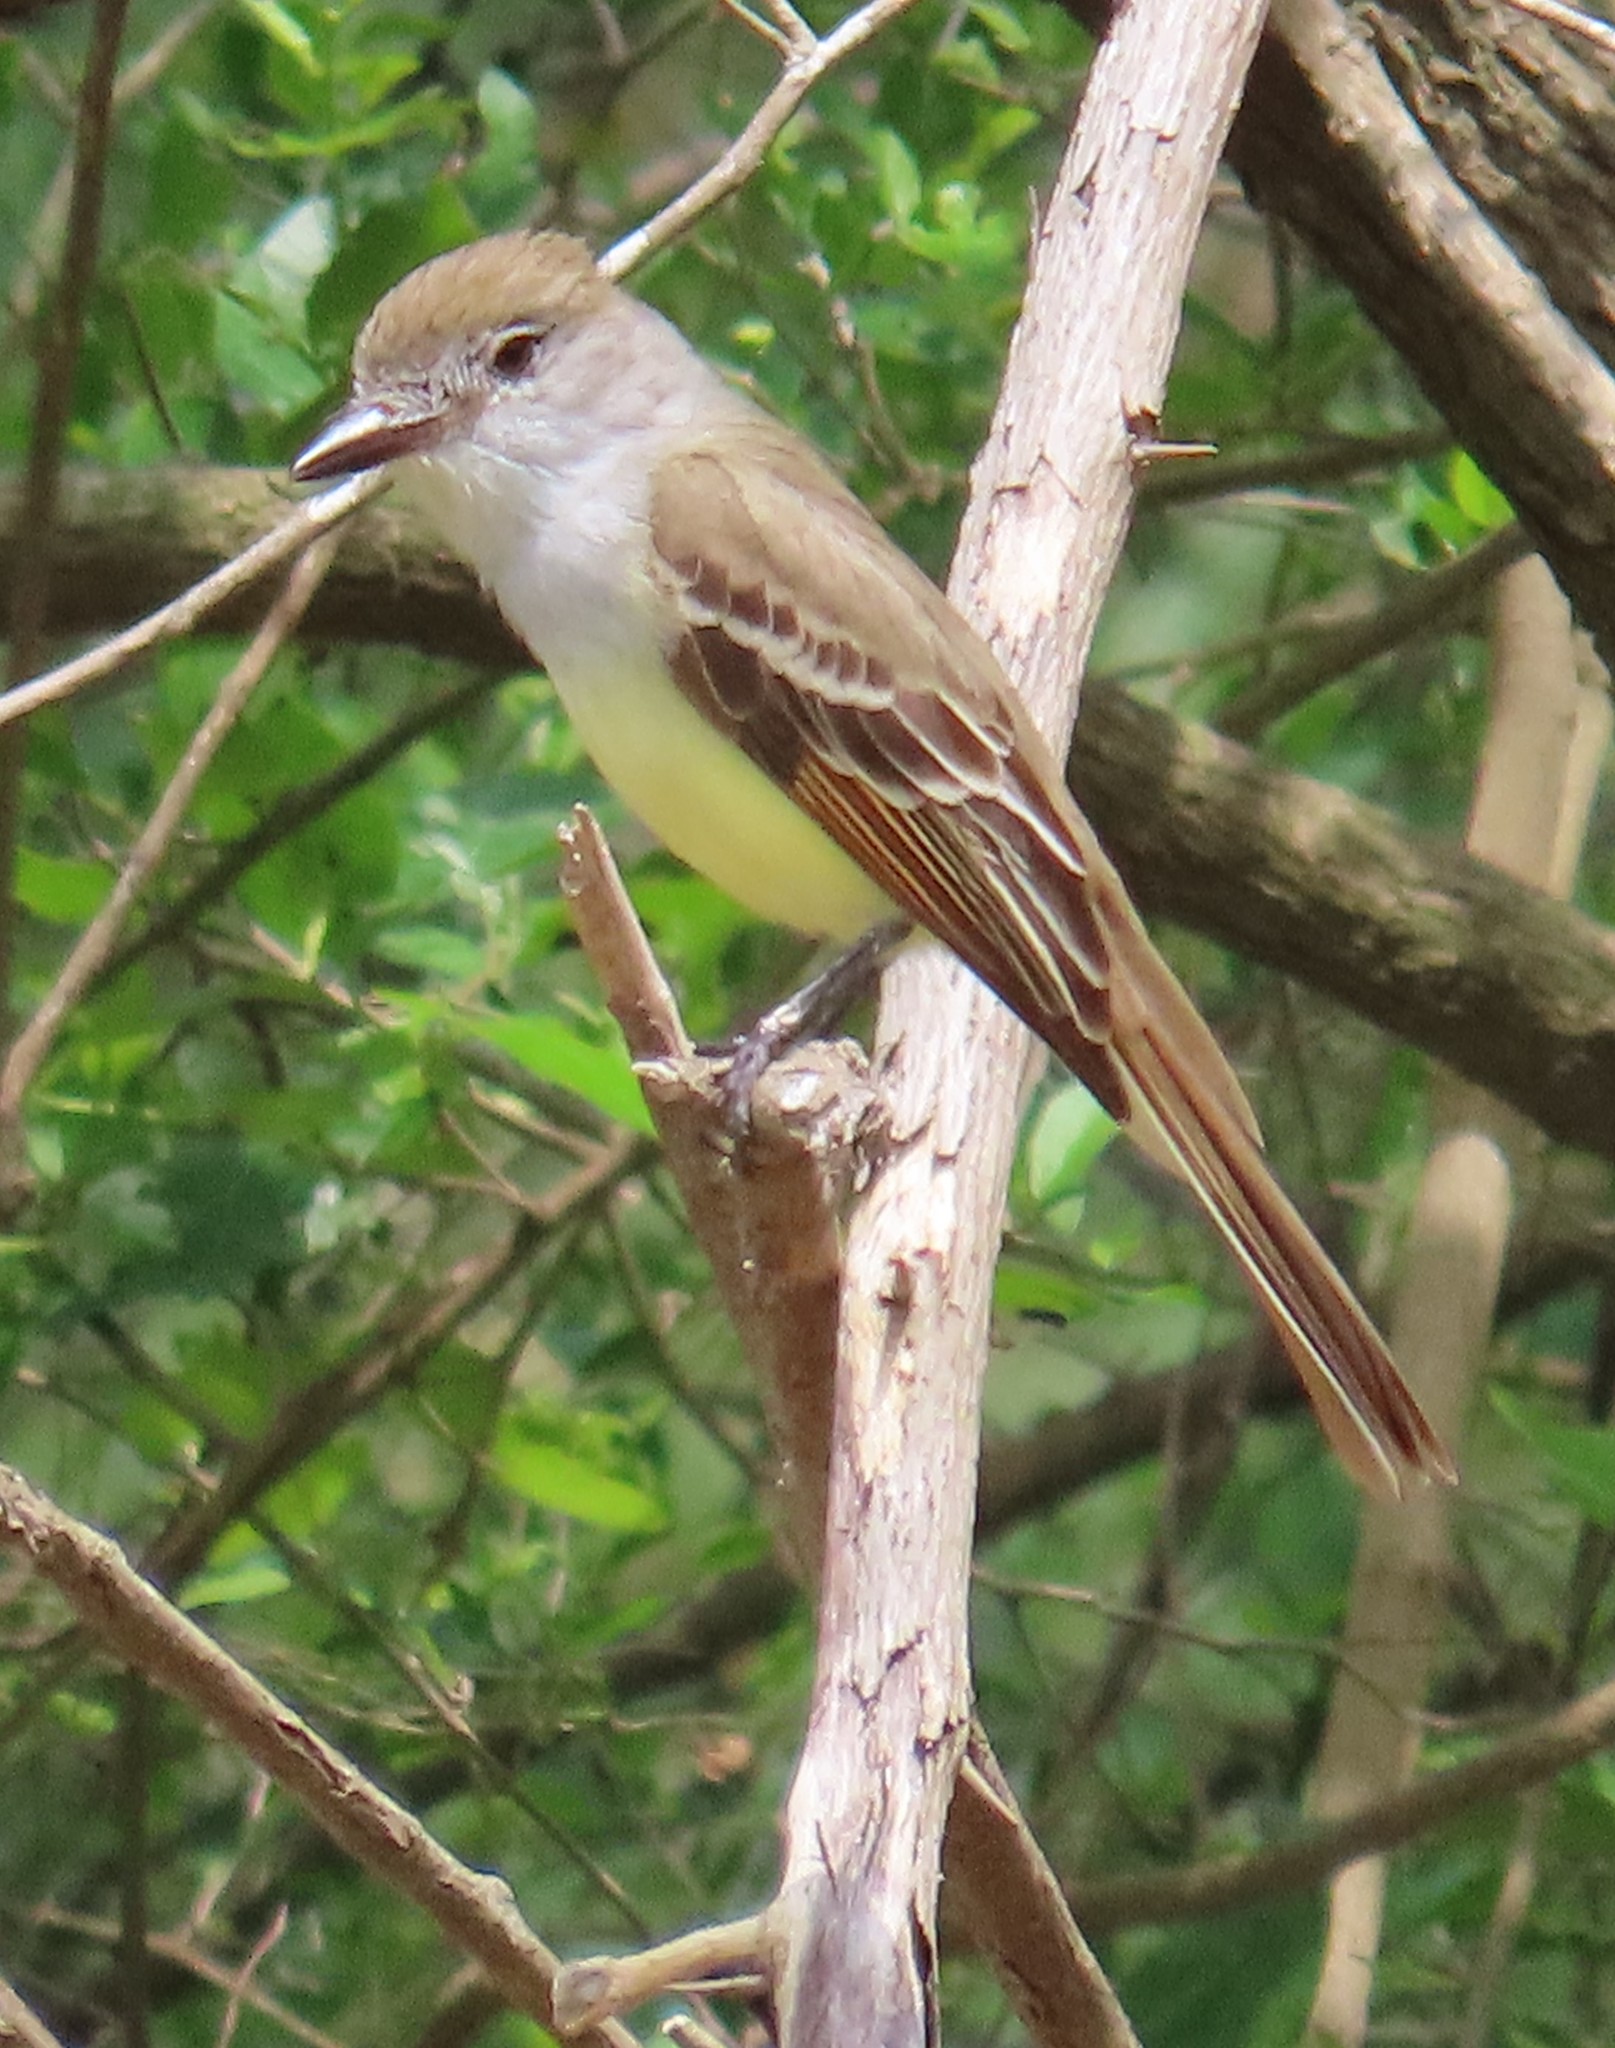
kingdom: Animalia
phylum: Chordata
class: Aves
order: Passeriformes
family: Tyrannidae
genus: Myiarchus
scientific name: Myiarchus tyrannulus
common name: Brown-crested flycatcher
